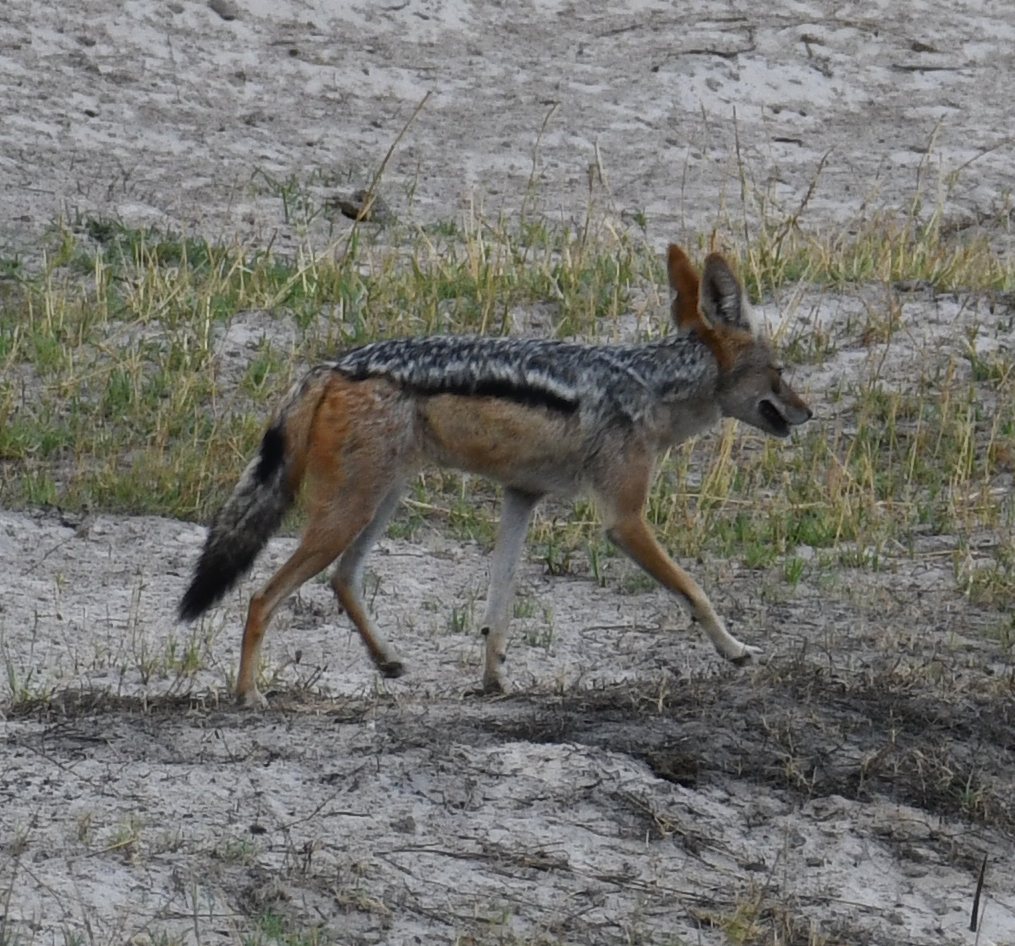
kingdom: Animalia
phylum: Chordata
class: Mammalia
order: Carnivora
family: Canidae
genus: Lupulella
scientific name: Lupulella
